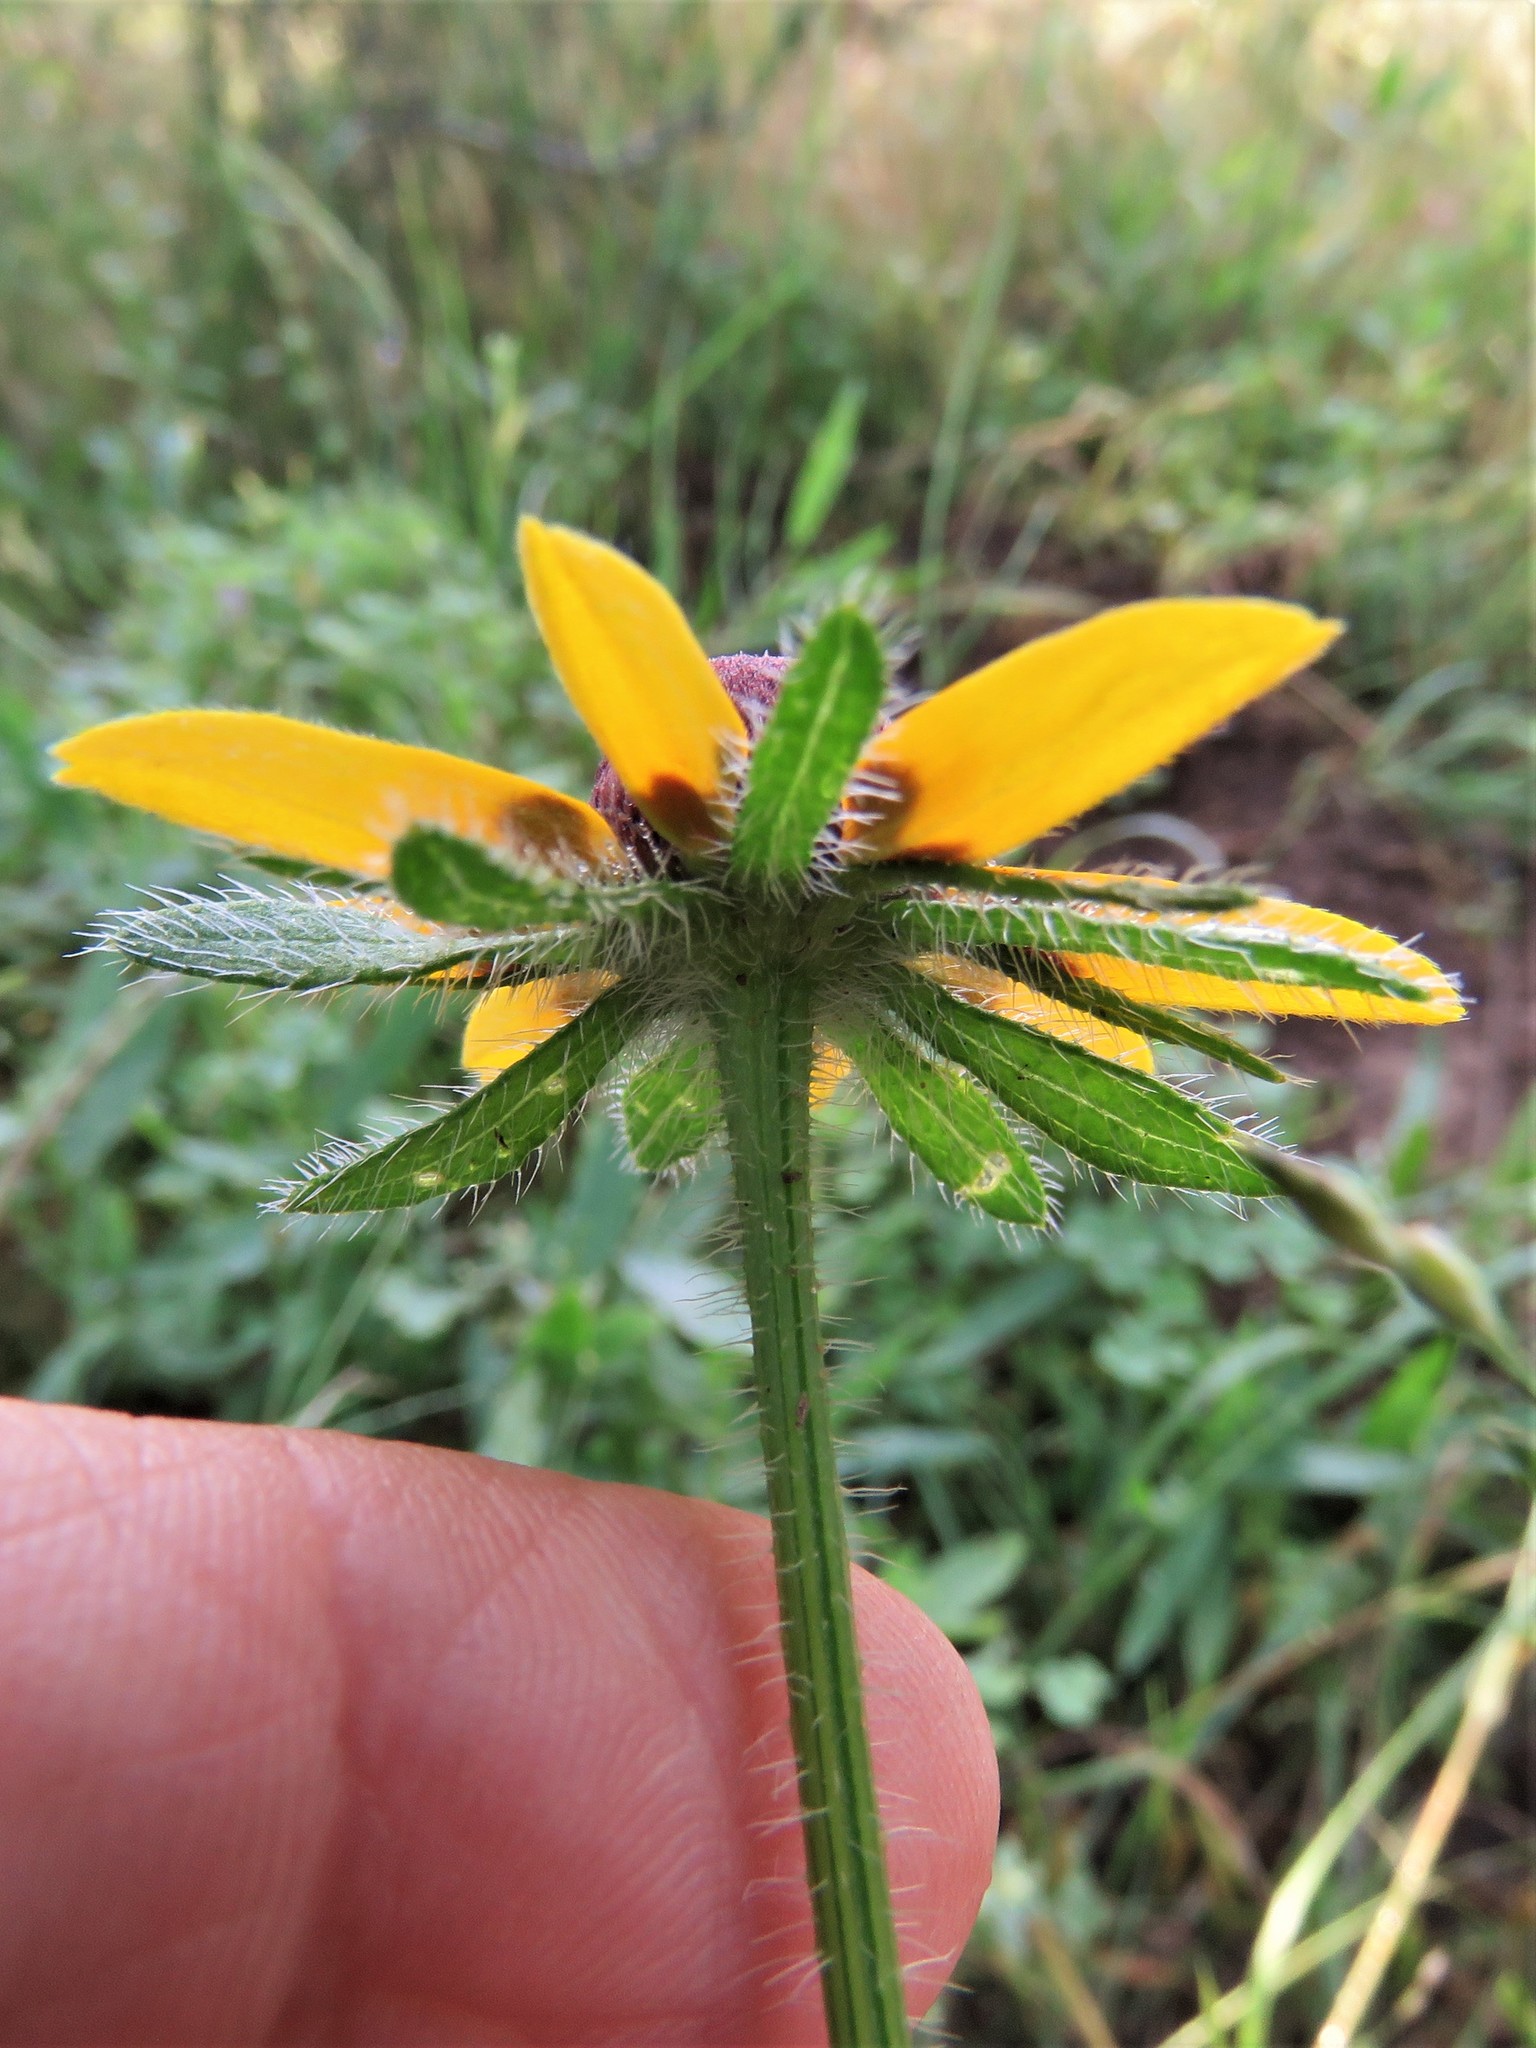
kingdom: Plantae
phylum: Tracheophyta
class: Magnoliopsida
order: Asterales
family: Asteraceae
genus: Rudbeckia
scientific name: Rudbeckia hirta
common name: Black-eyed-susan
